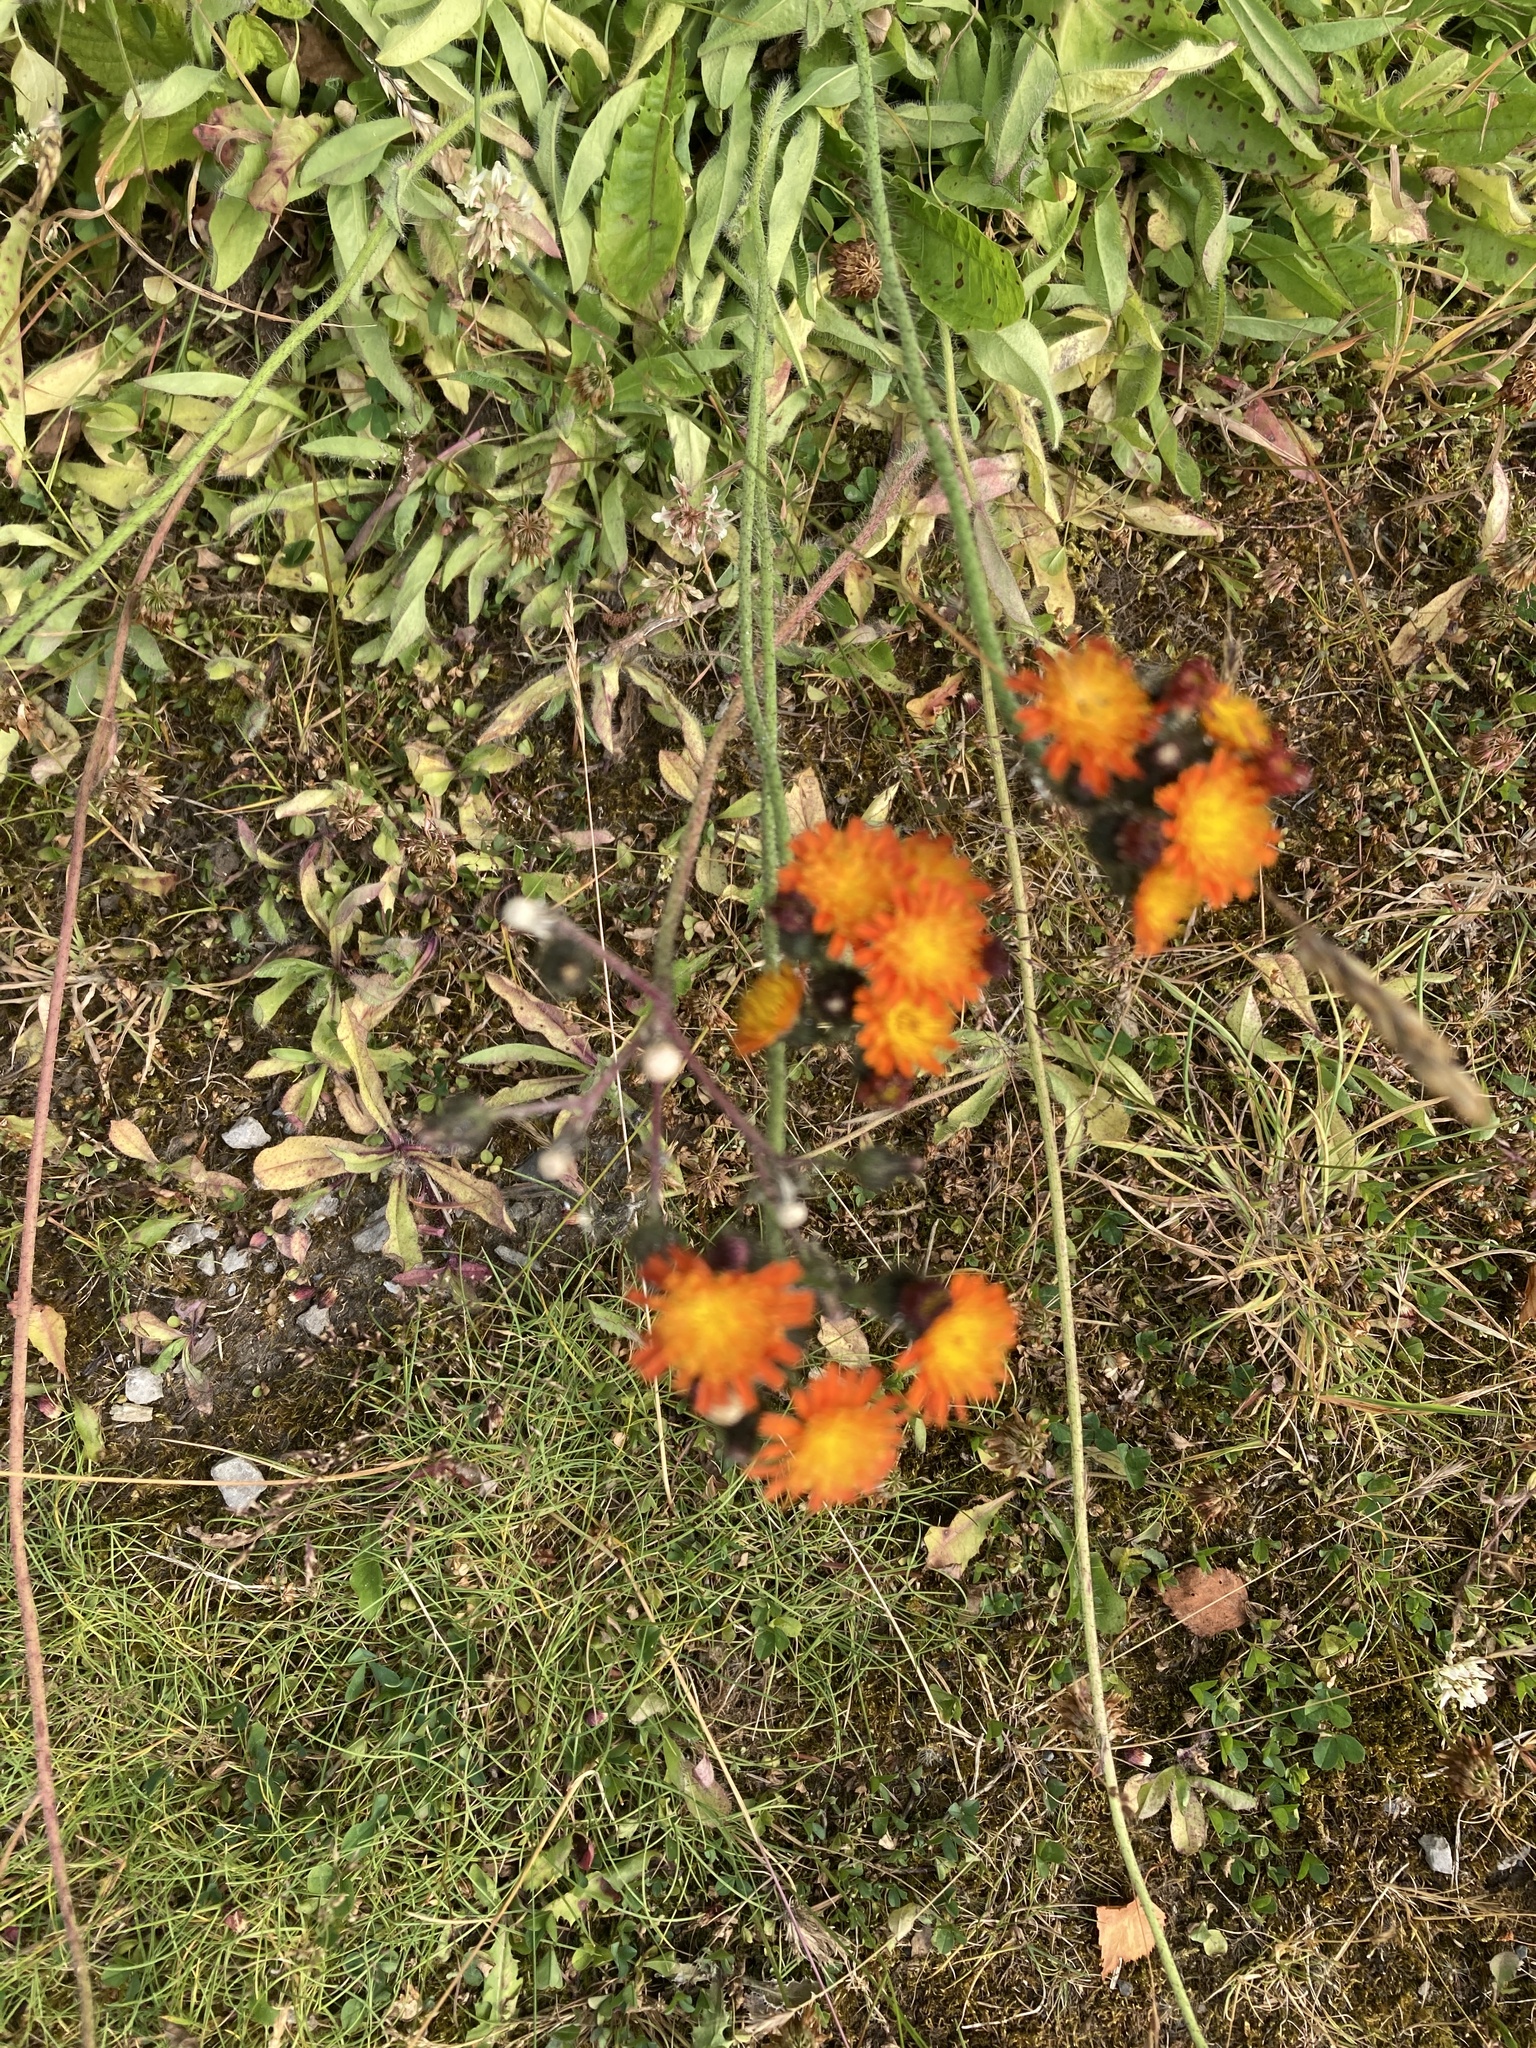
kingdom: Plantae
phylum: Tracheophyta
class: Magnoliopsida
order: Asterales
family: Asteraceae
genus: Pilosella
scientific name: Pilosella aurantiaca
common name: Fox-and-cubs
